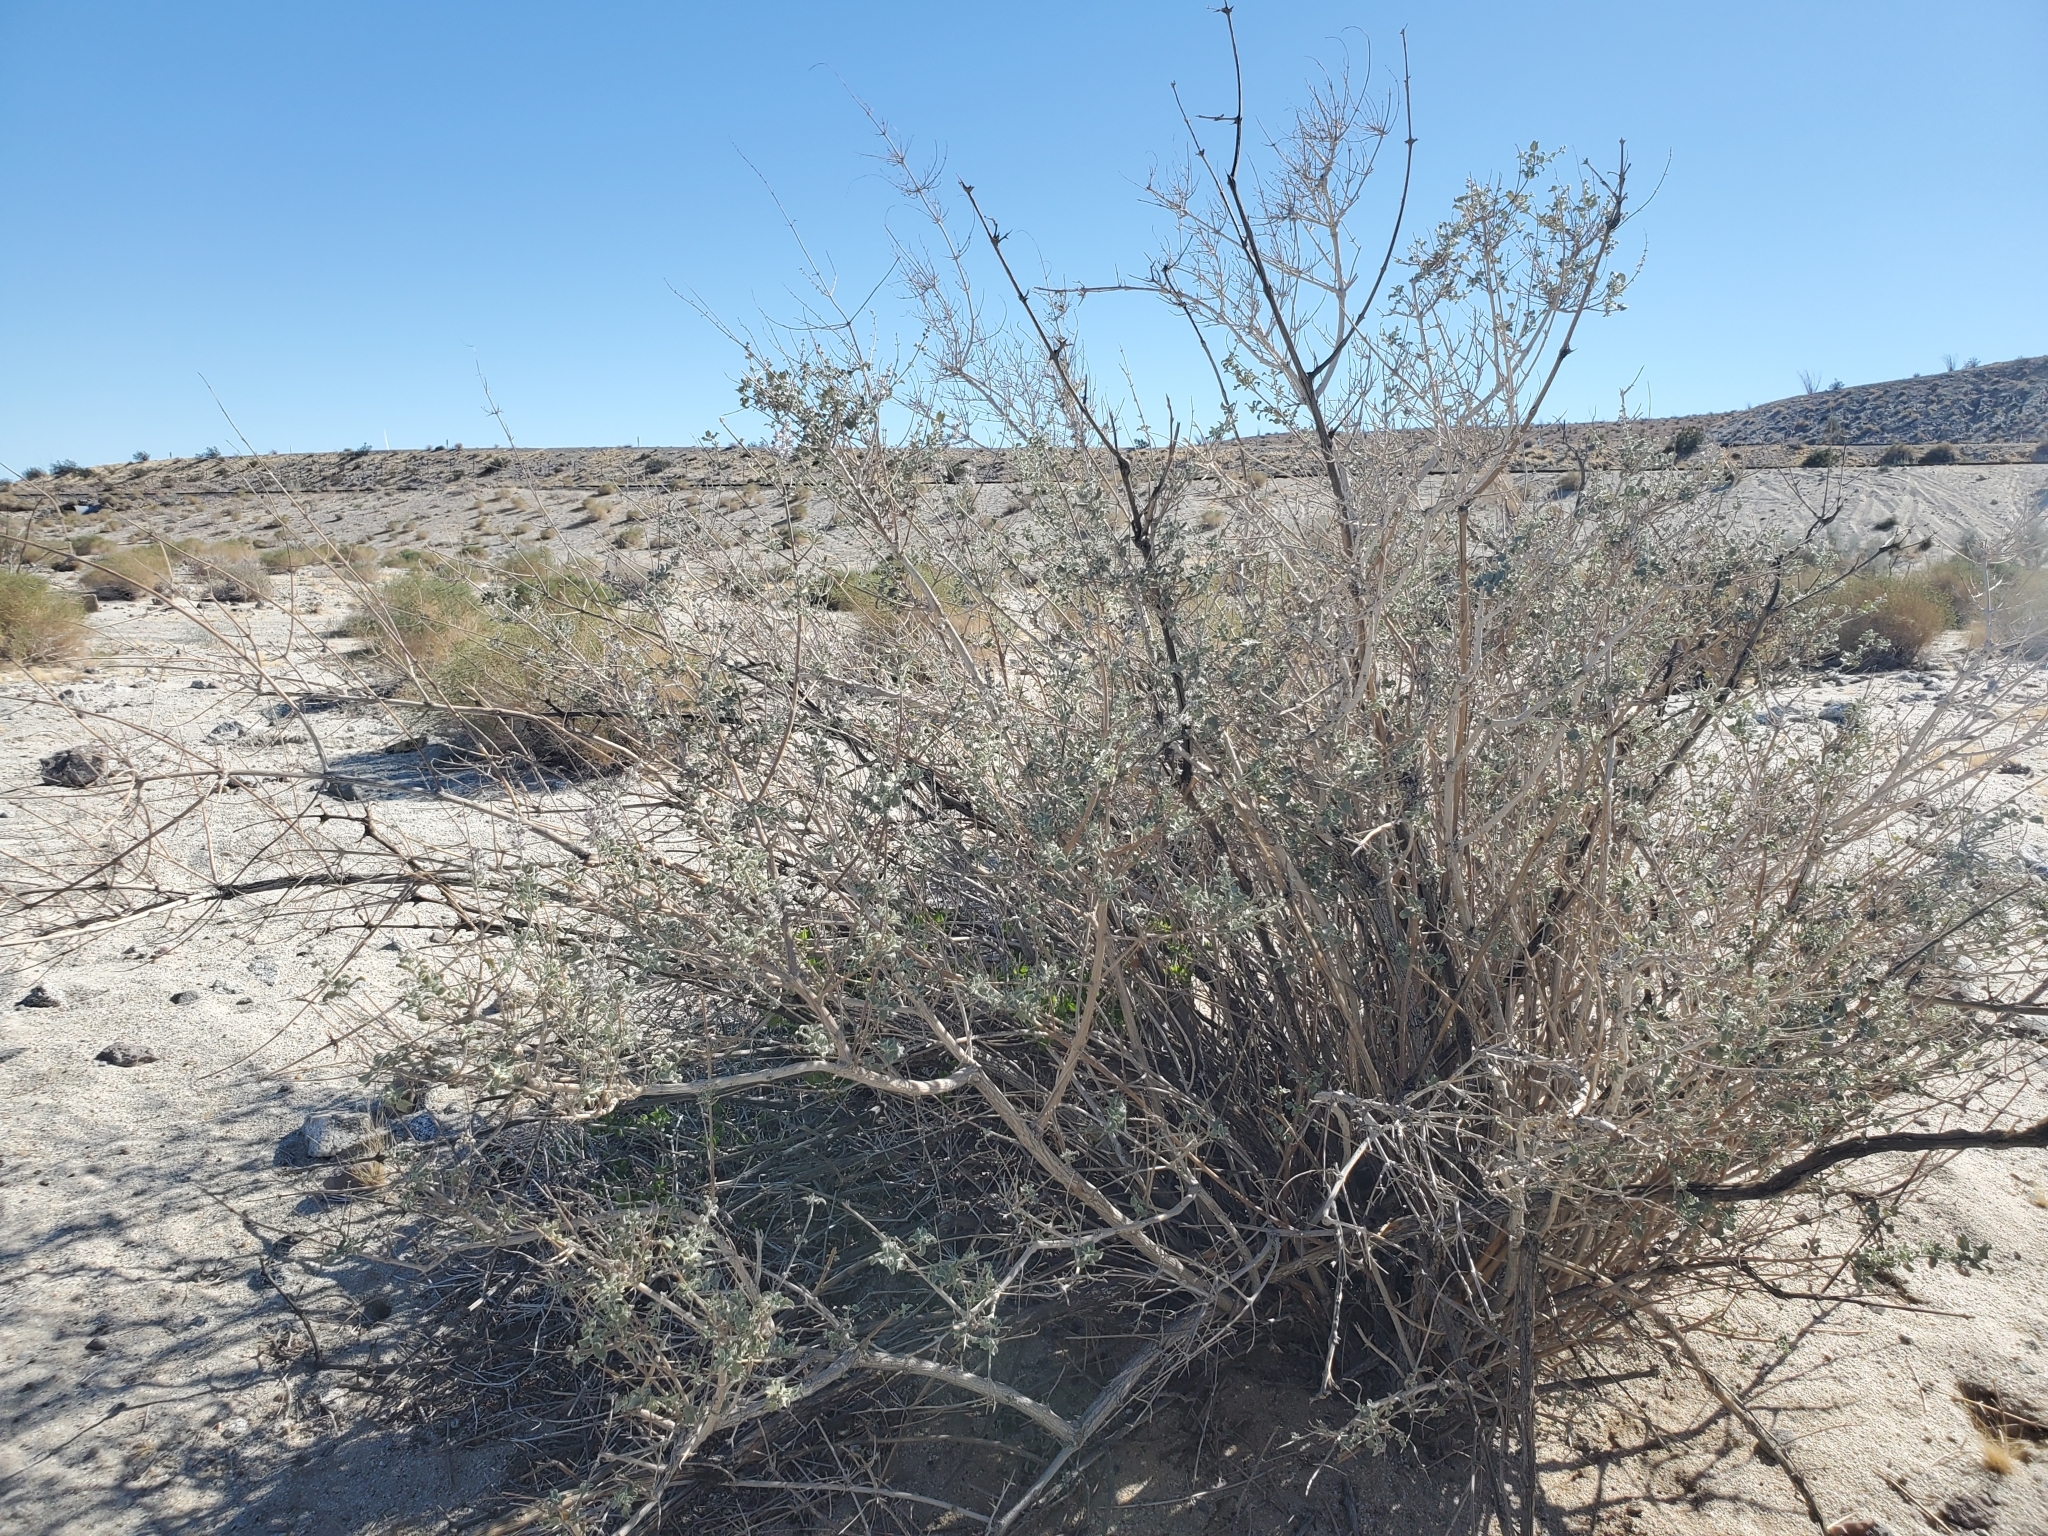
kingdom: Plantae
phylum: Tracheophyta
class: Magnoliopsida
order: Lamiales
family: Lamiaceae
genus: Condea
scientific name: Condea emoryi
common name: Chia
